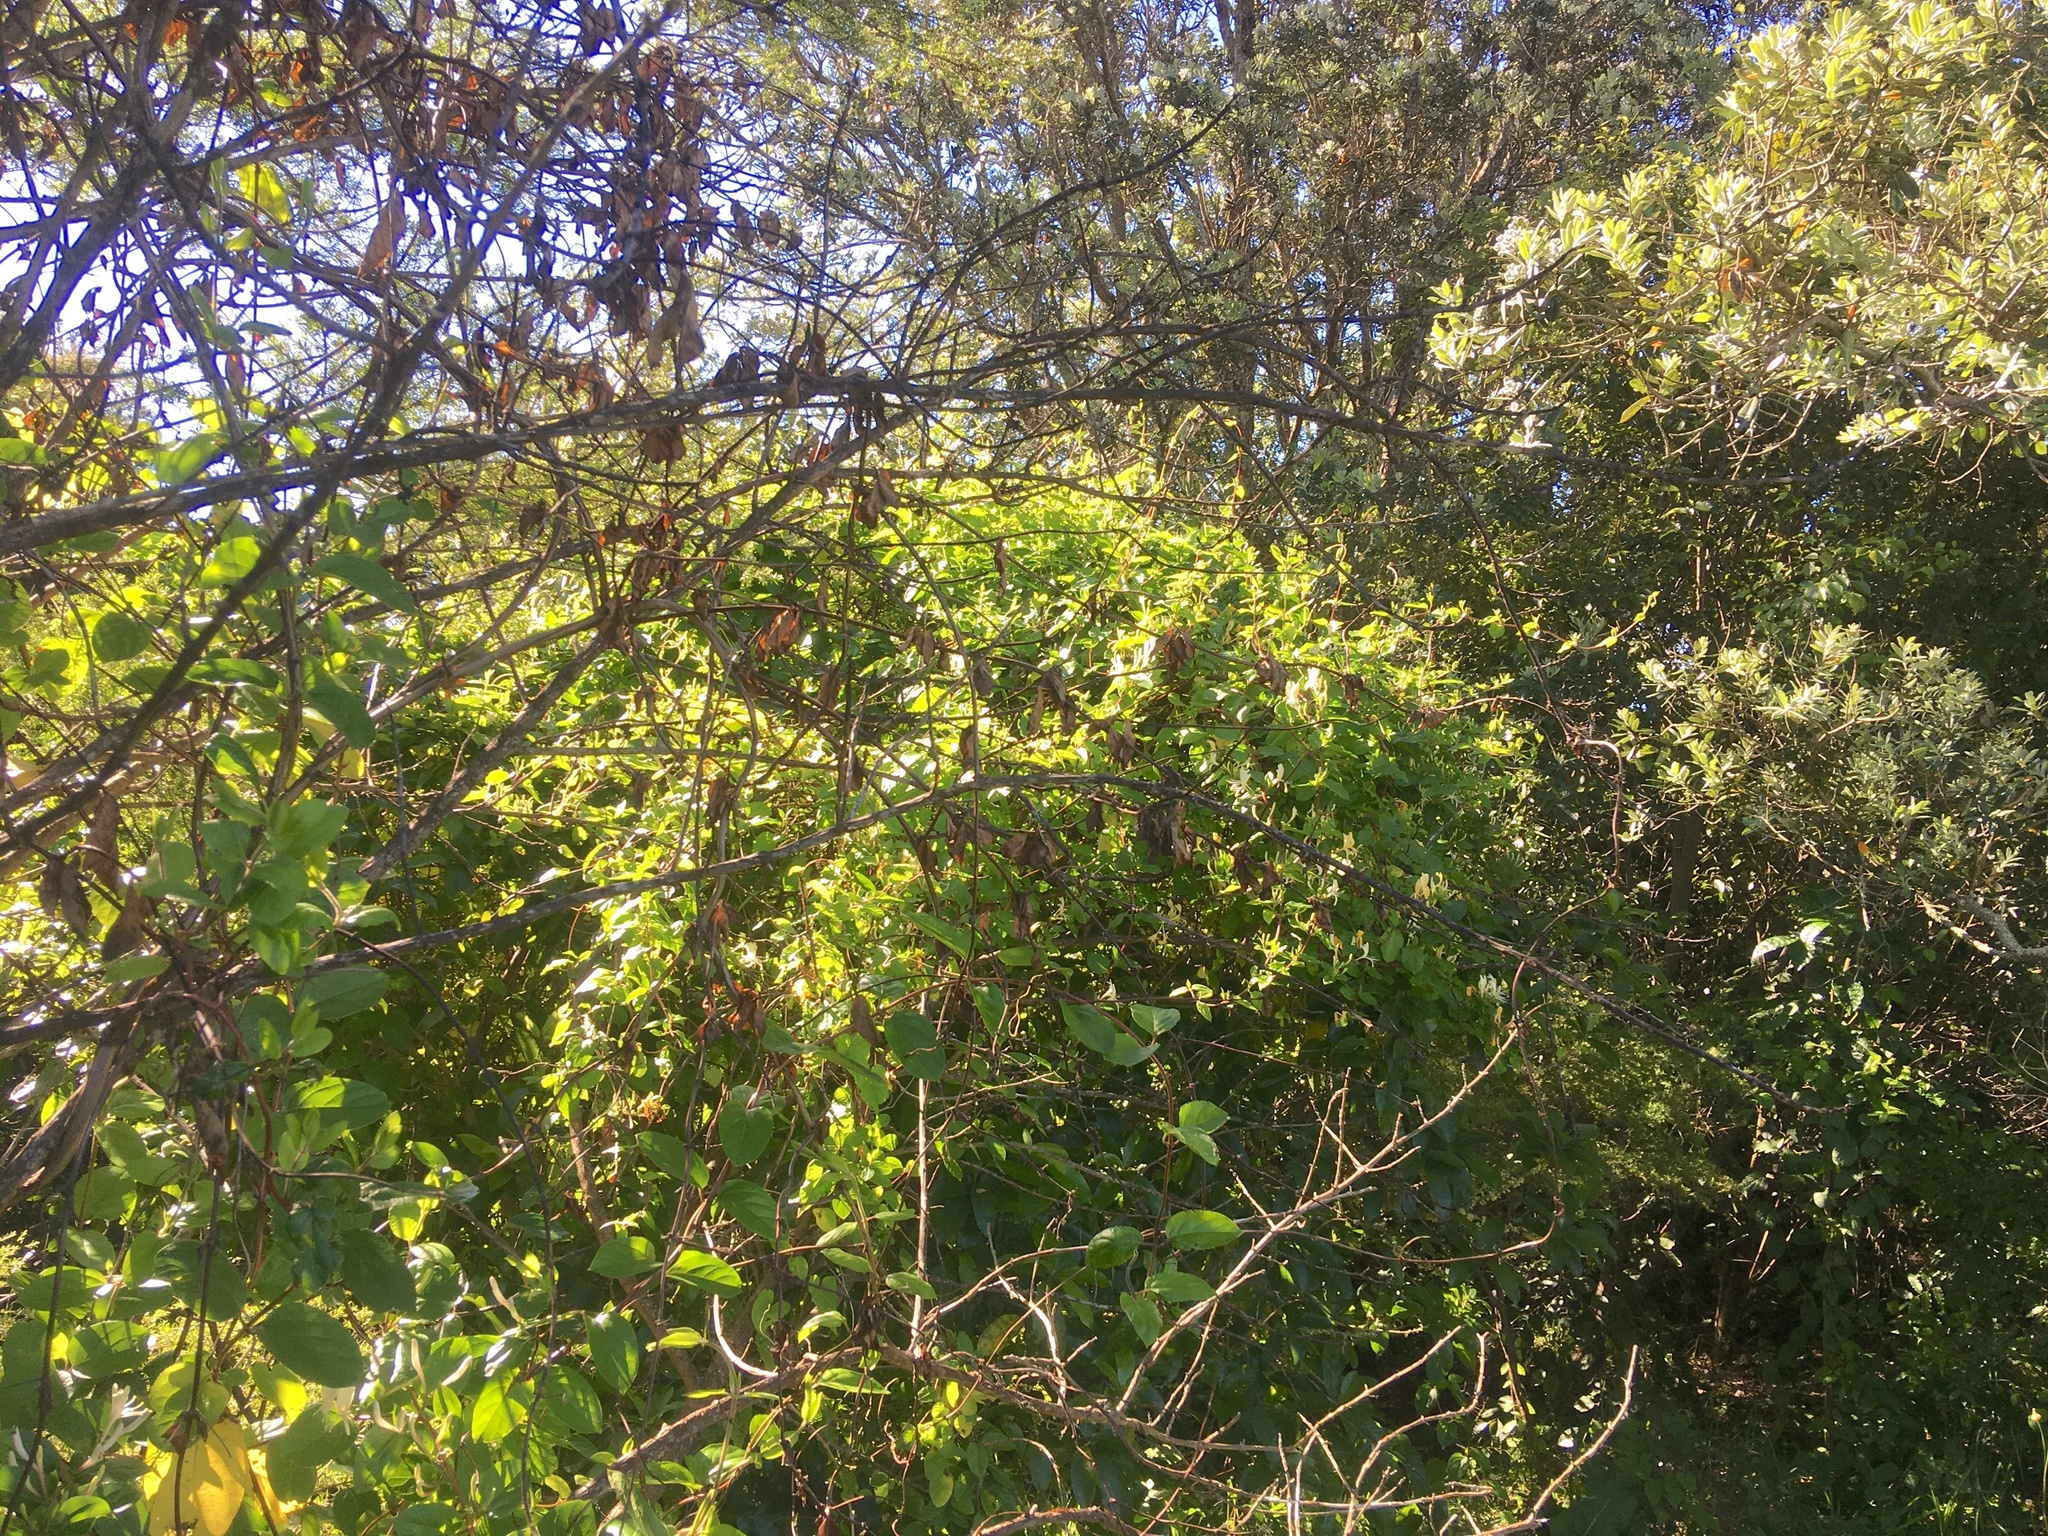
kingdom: Plantae
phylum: Tracheophyta
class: Magnoliopsida
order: Dipsacales
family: Caprifoliaceae
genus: Lonicera
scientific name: Lonicera japonica
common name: Japanese honeysuckle
